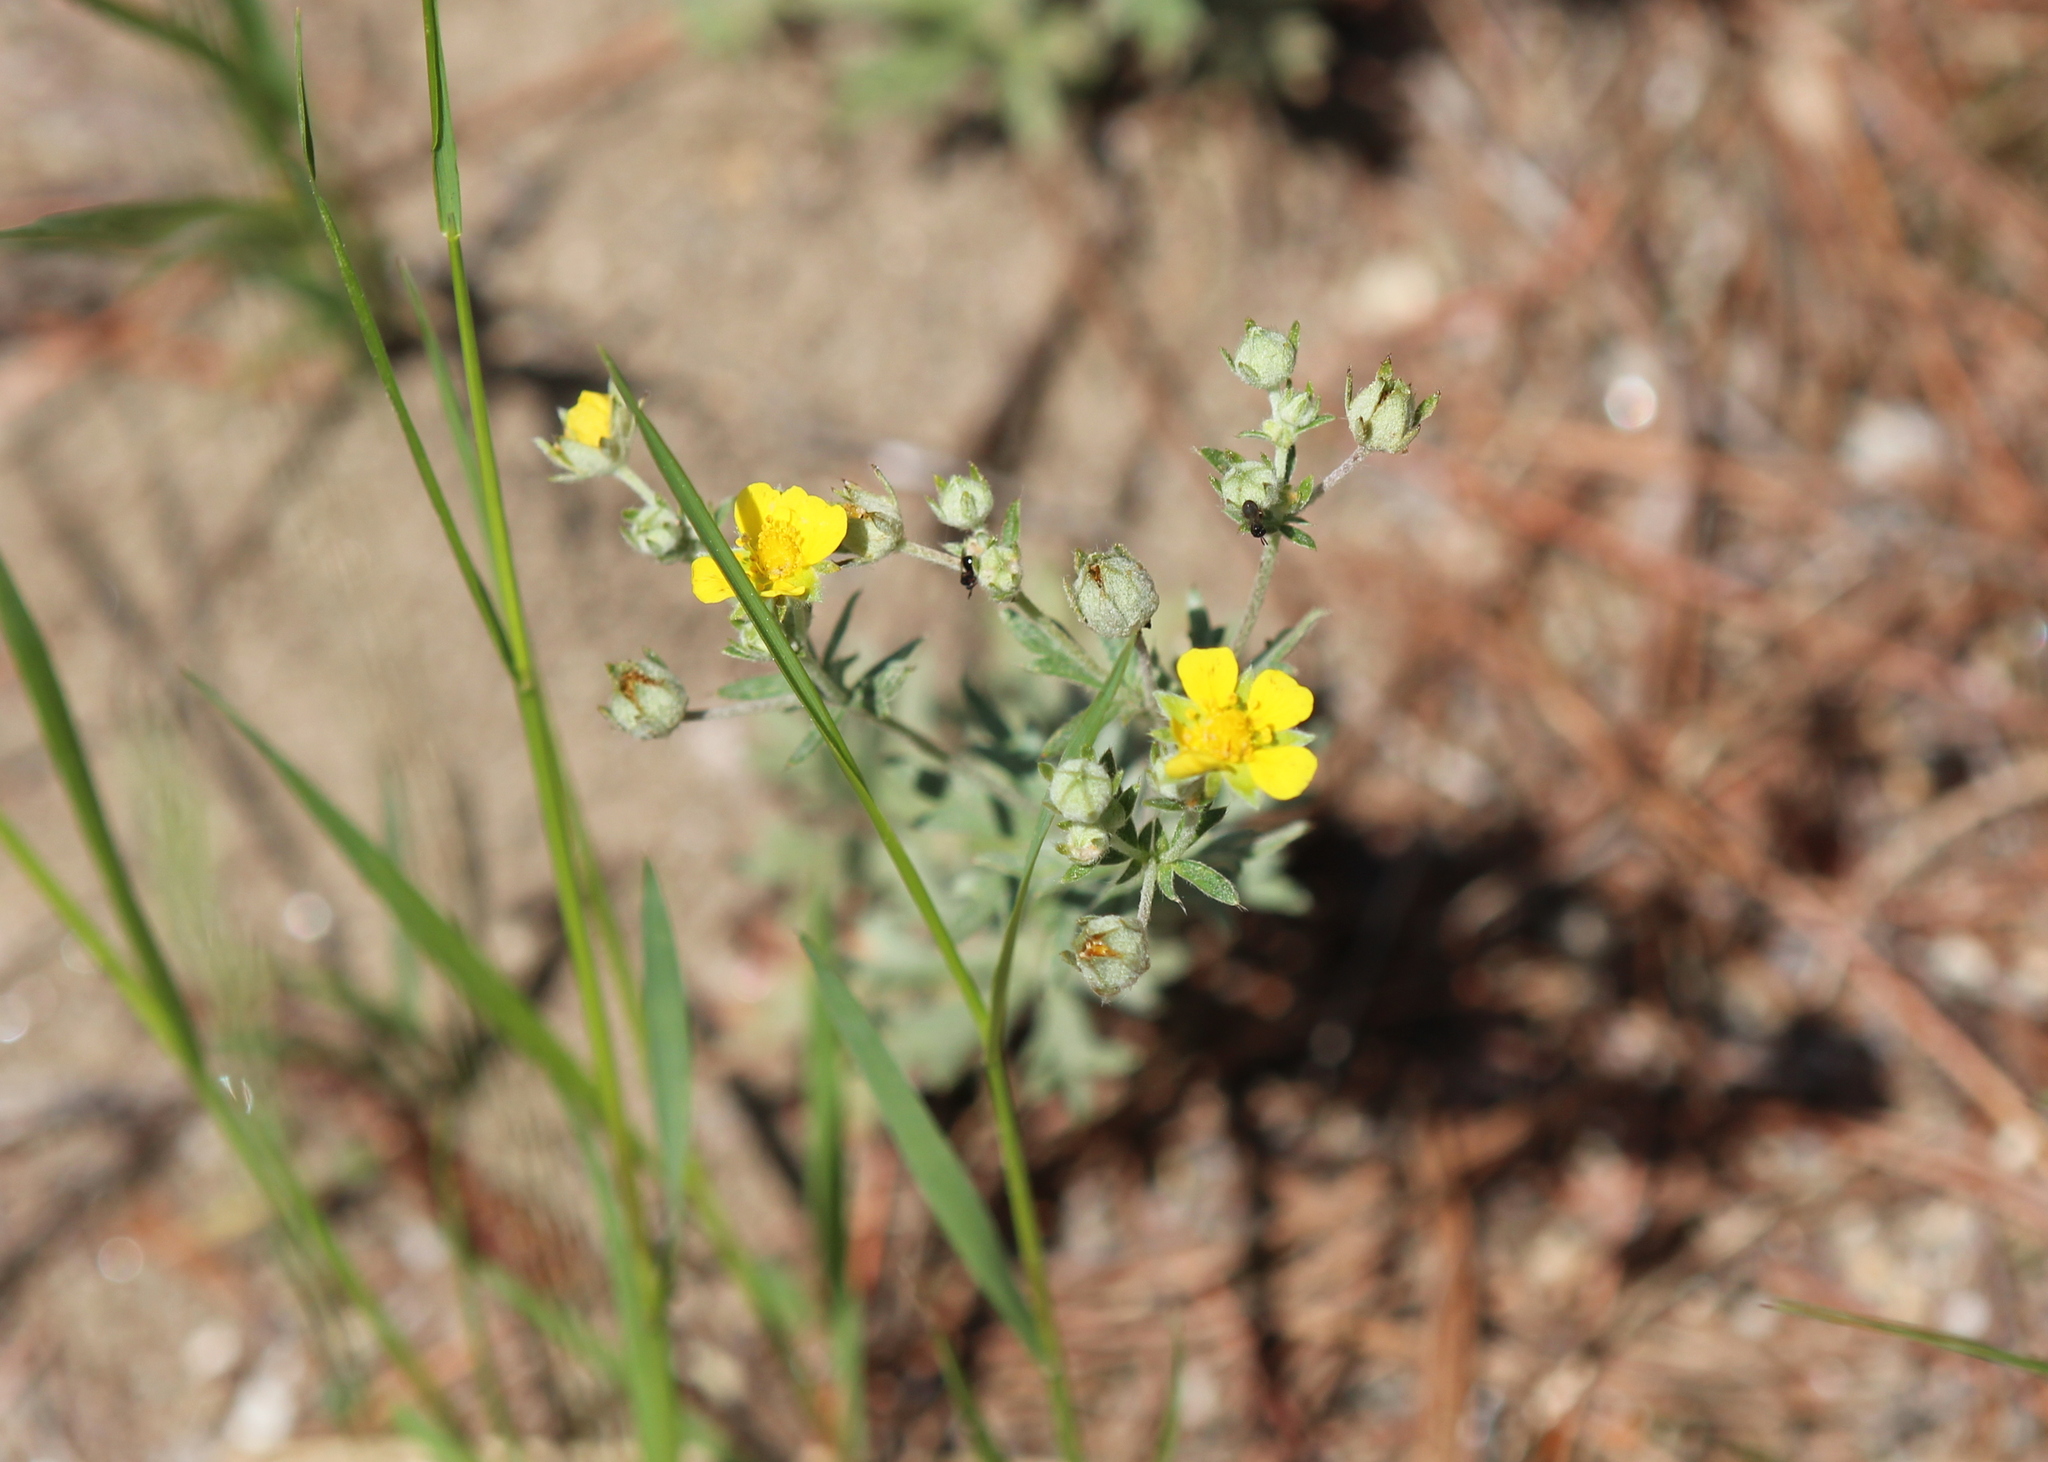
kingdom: Plantae
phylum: Tracheophyta
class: Magnoliopsida
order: Rosales
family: Rosaceae
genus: Potentilla
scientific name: Potentilla argentea
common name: Hoary cinquefoil
